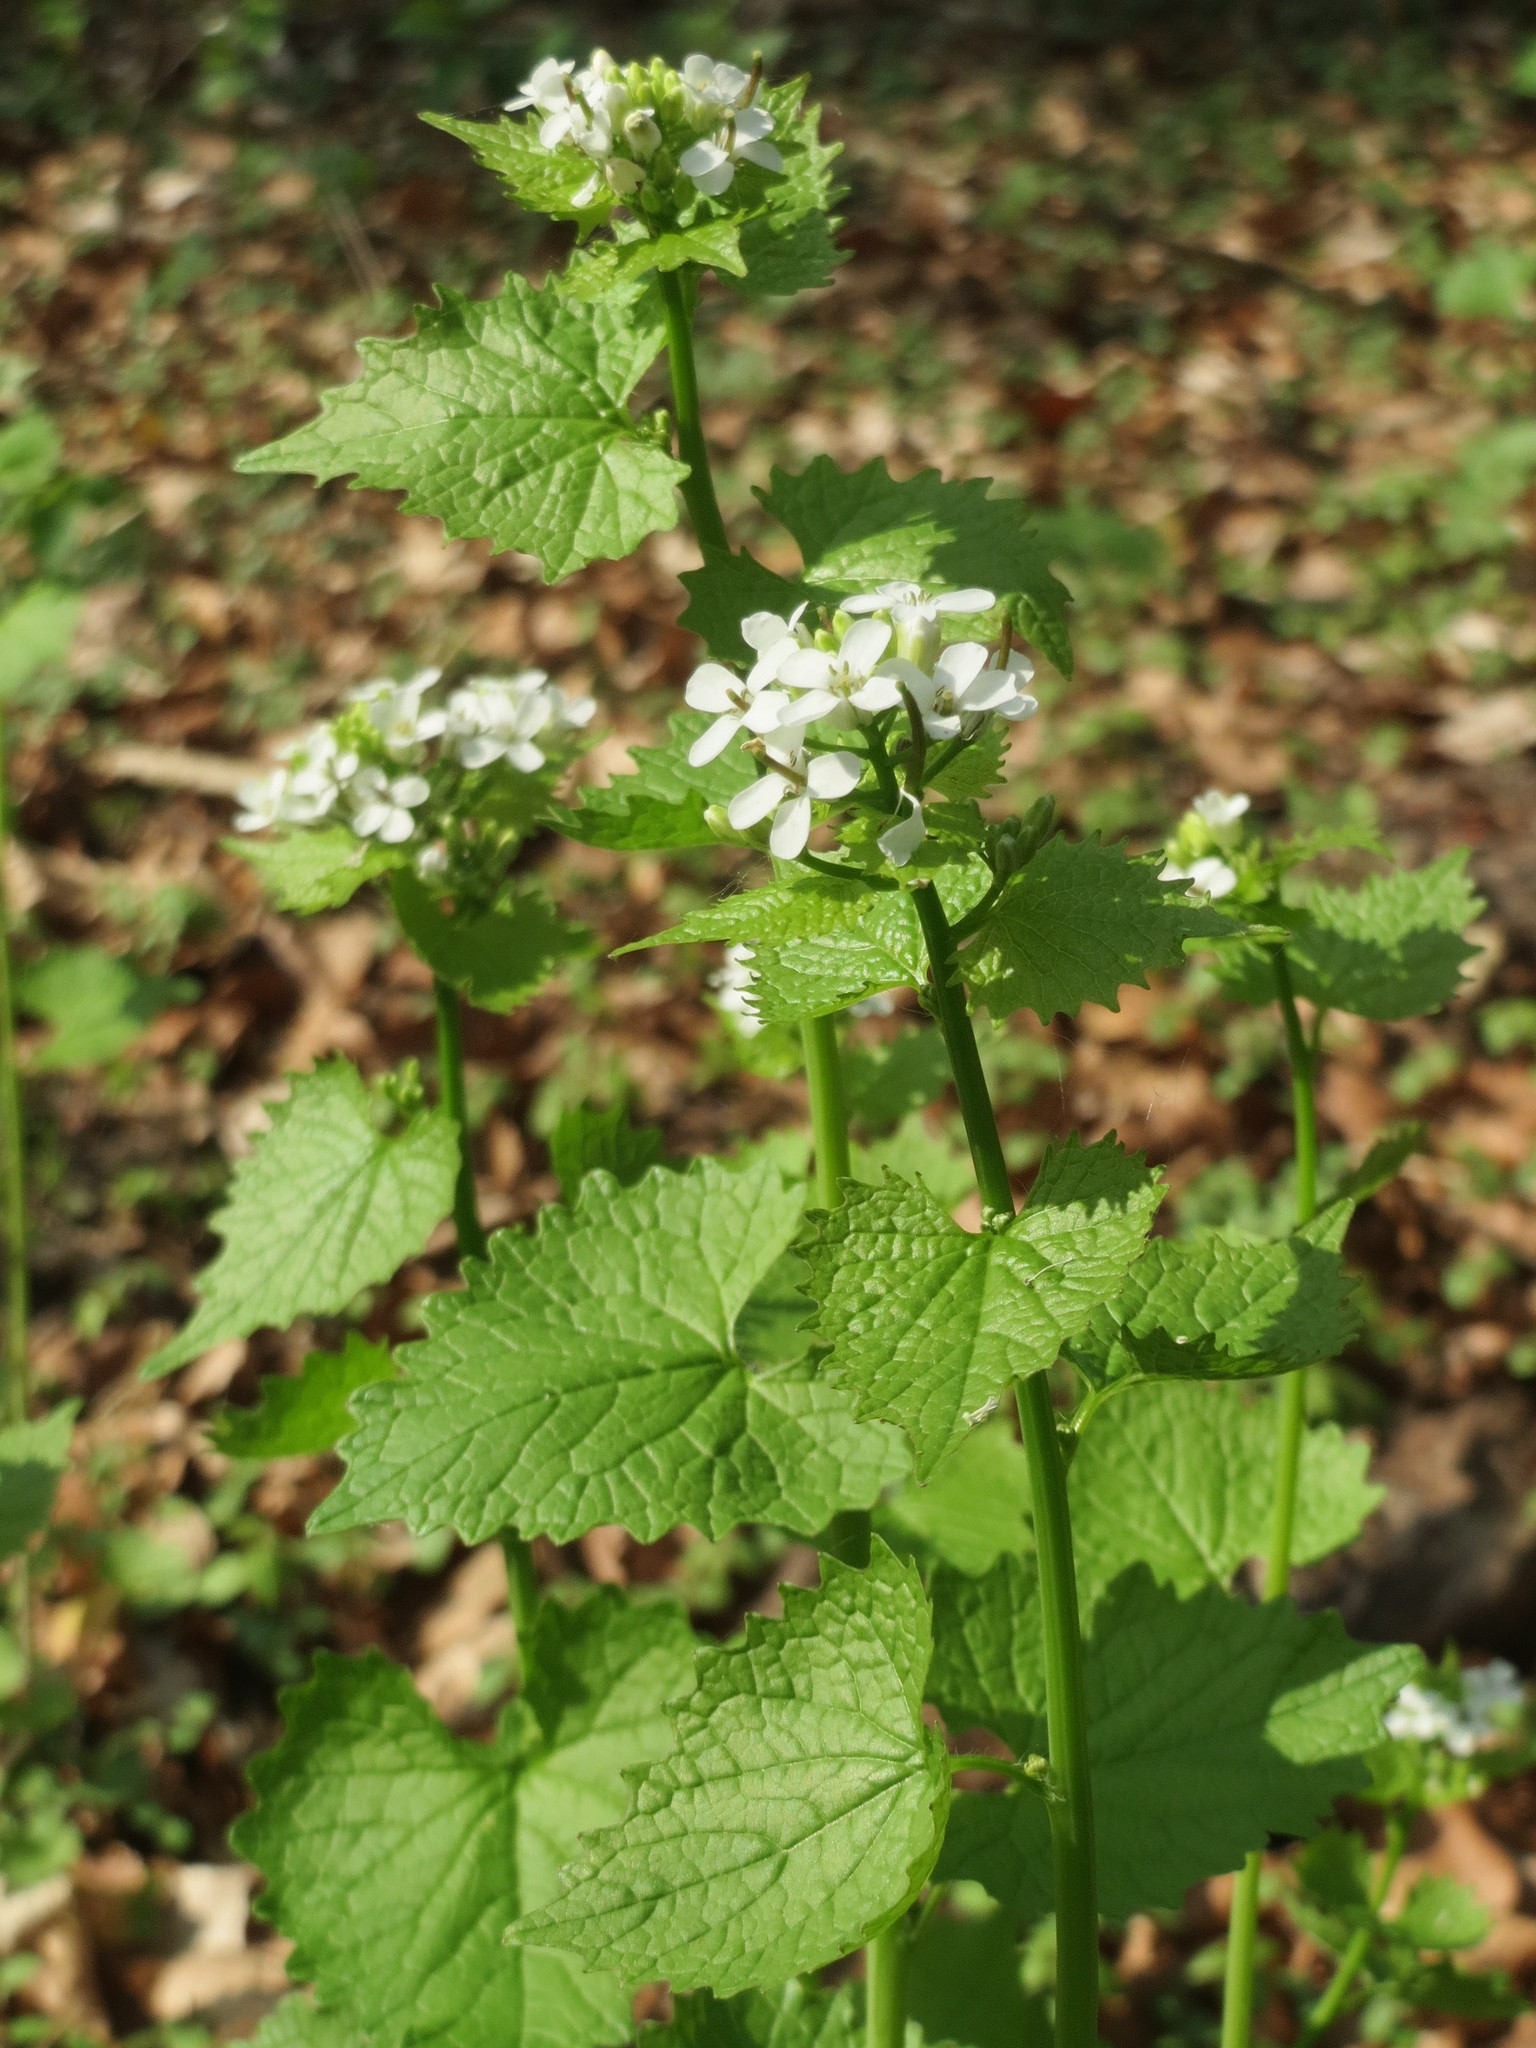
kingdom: Plantae
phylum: Tracheophyta
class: Magnoliopsida
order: Brassicales
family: Brassicaceae
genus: Alliaria
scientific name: Alliaria petiolata
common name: Garlic mustard
